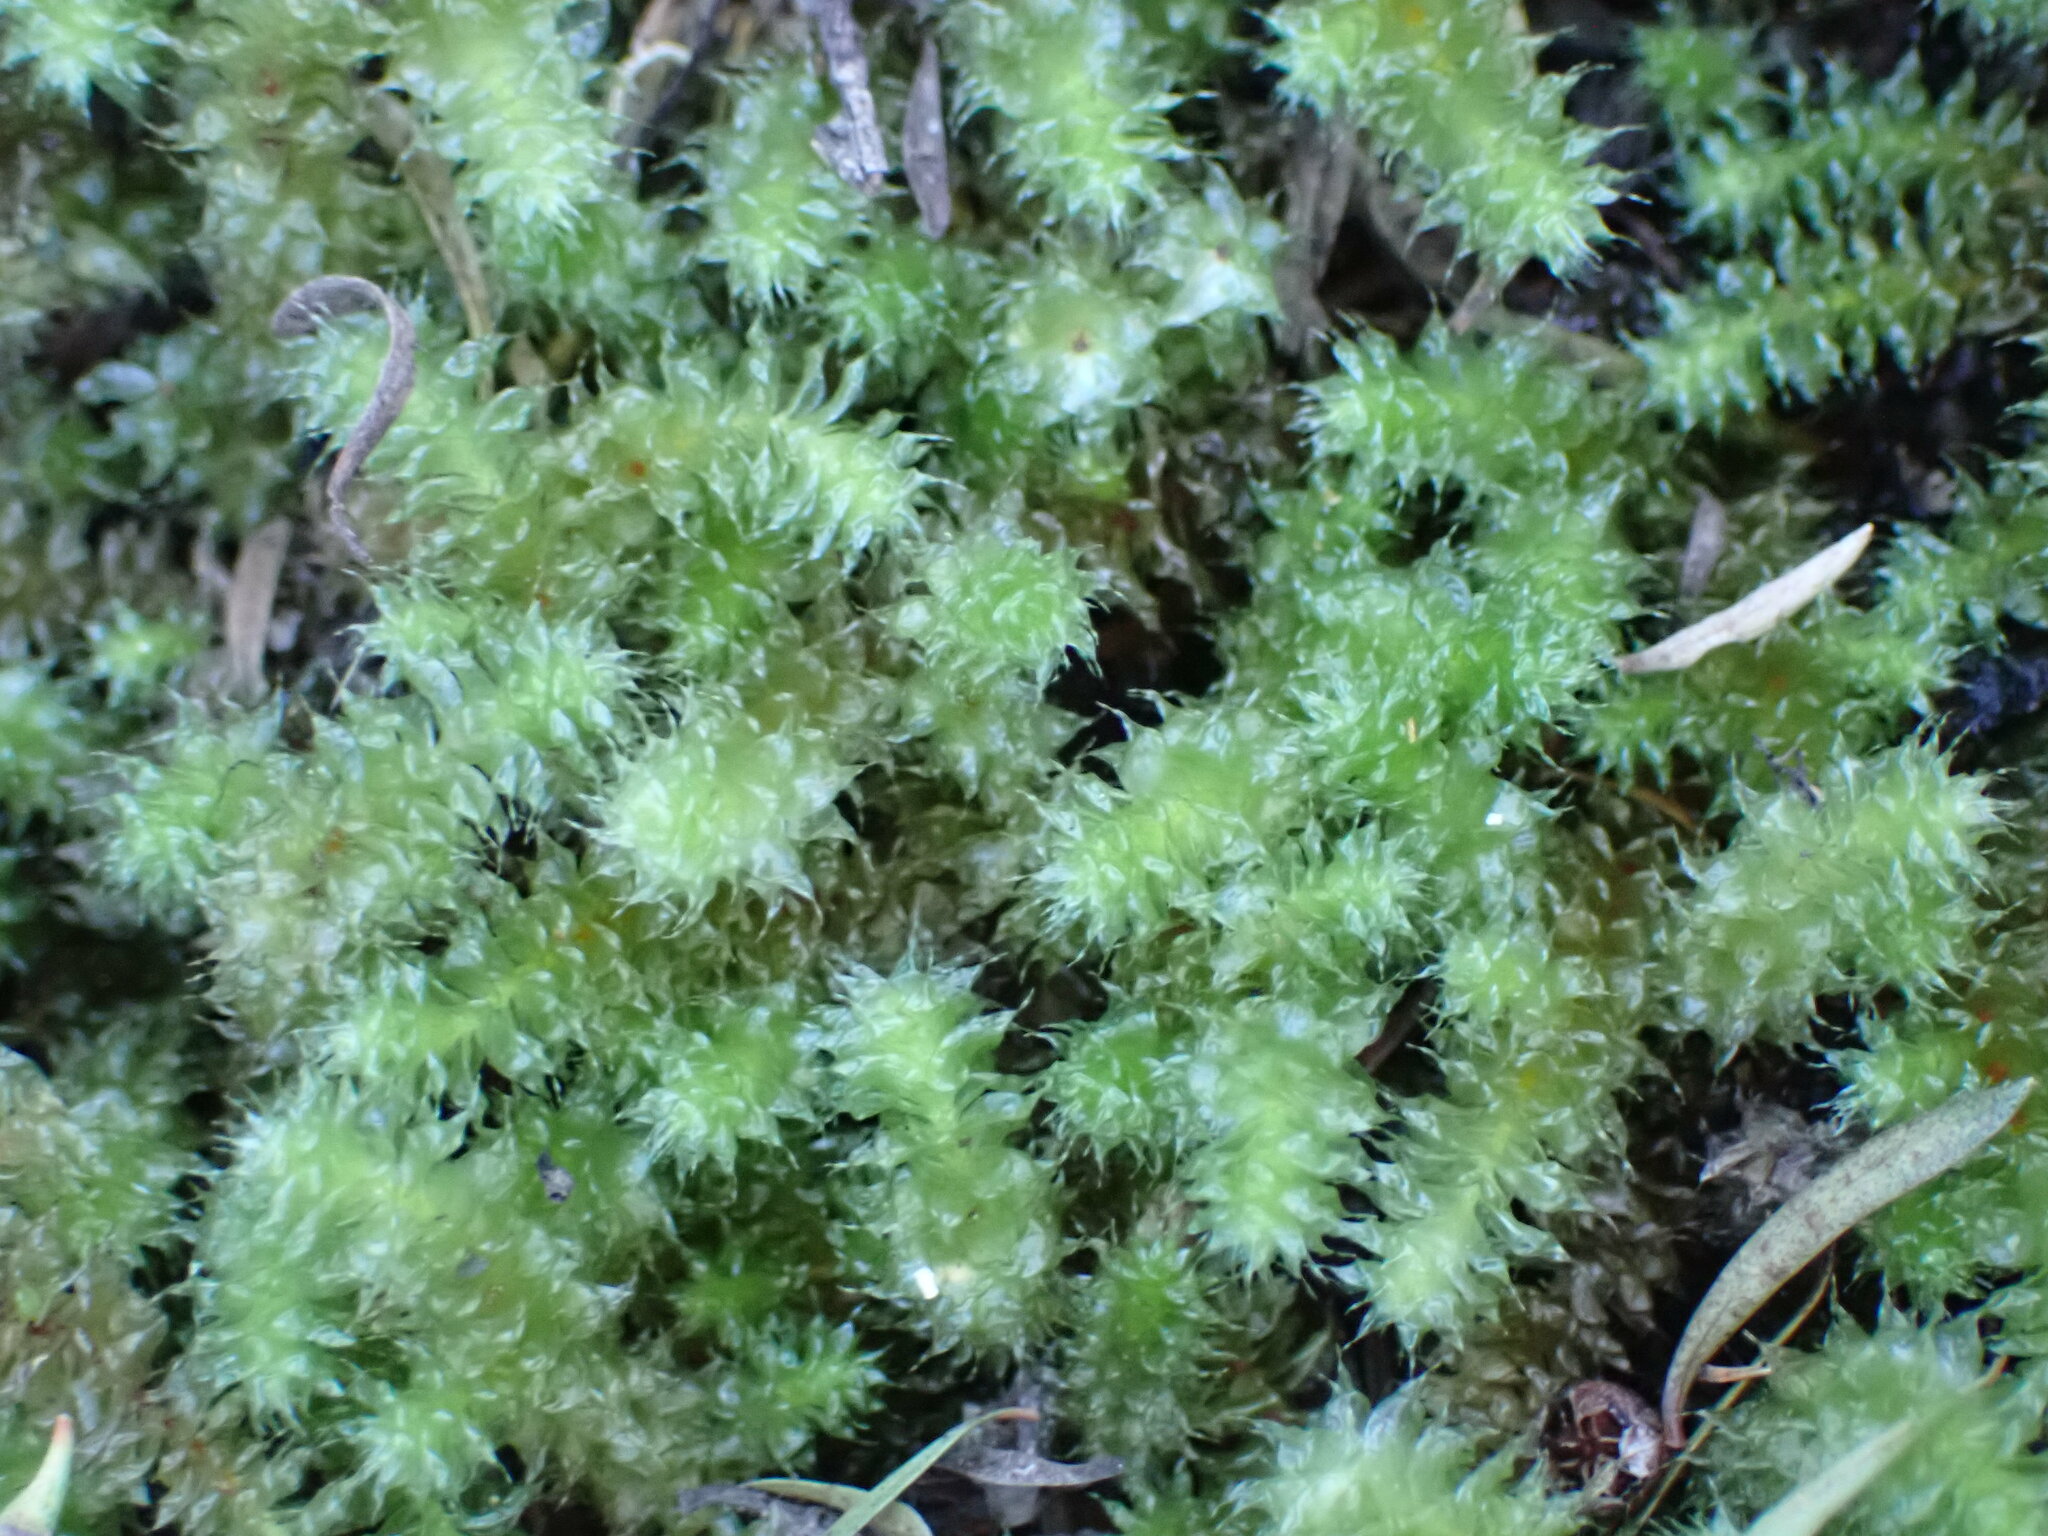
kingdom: Plantae
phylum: Bryophyta
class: Bryopsida
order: Ptychomniales
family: Ptychomniaceae
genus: Ptychomnion
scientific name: Ptychomnion aciculare
